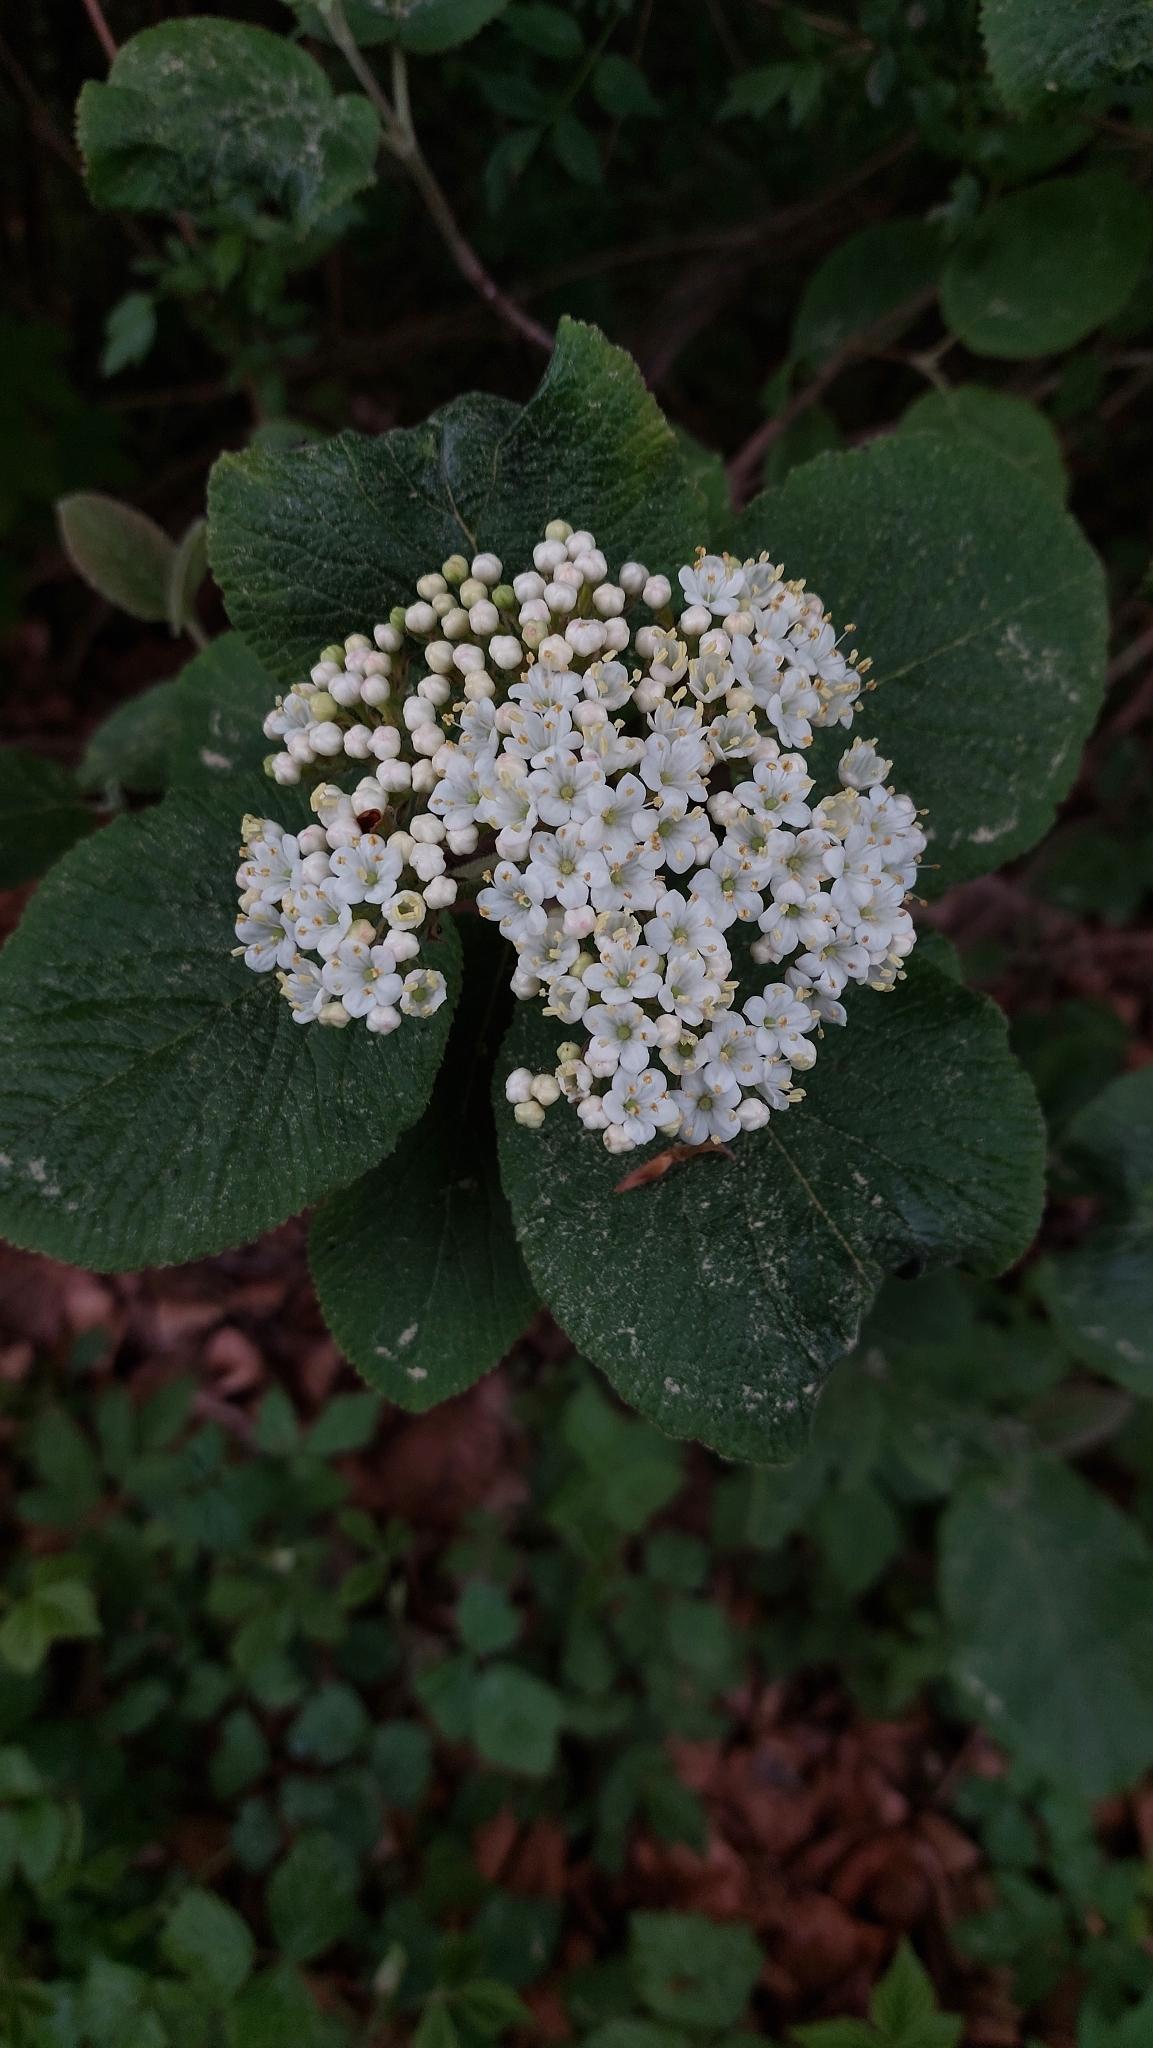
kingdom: Plantae
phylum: Tracheophyta
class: Magnoliopsida
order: Dipsacales
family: Viburnaceae
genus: Viburnum
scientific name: Viburnum lantana
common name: Wayfaring tree
